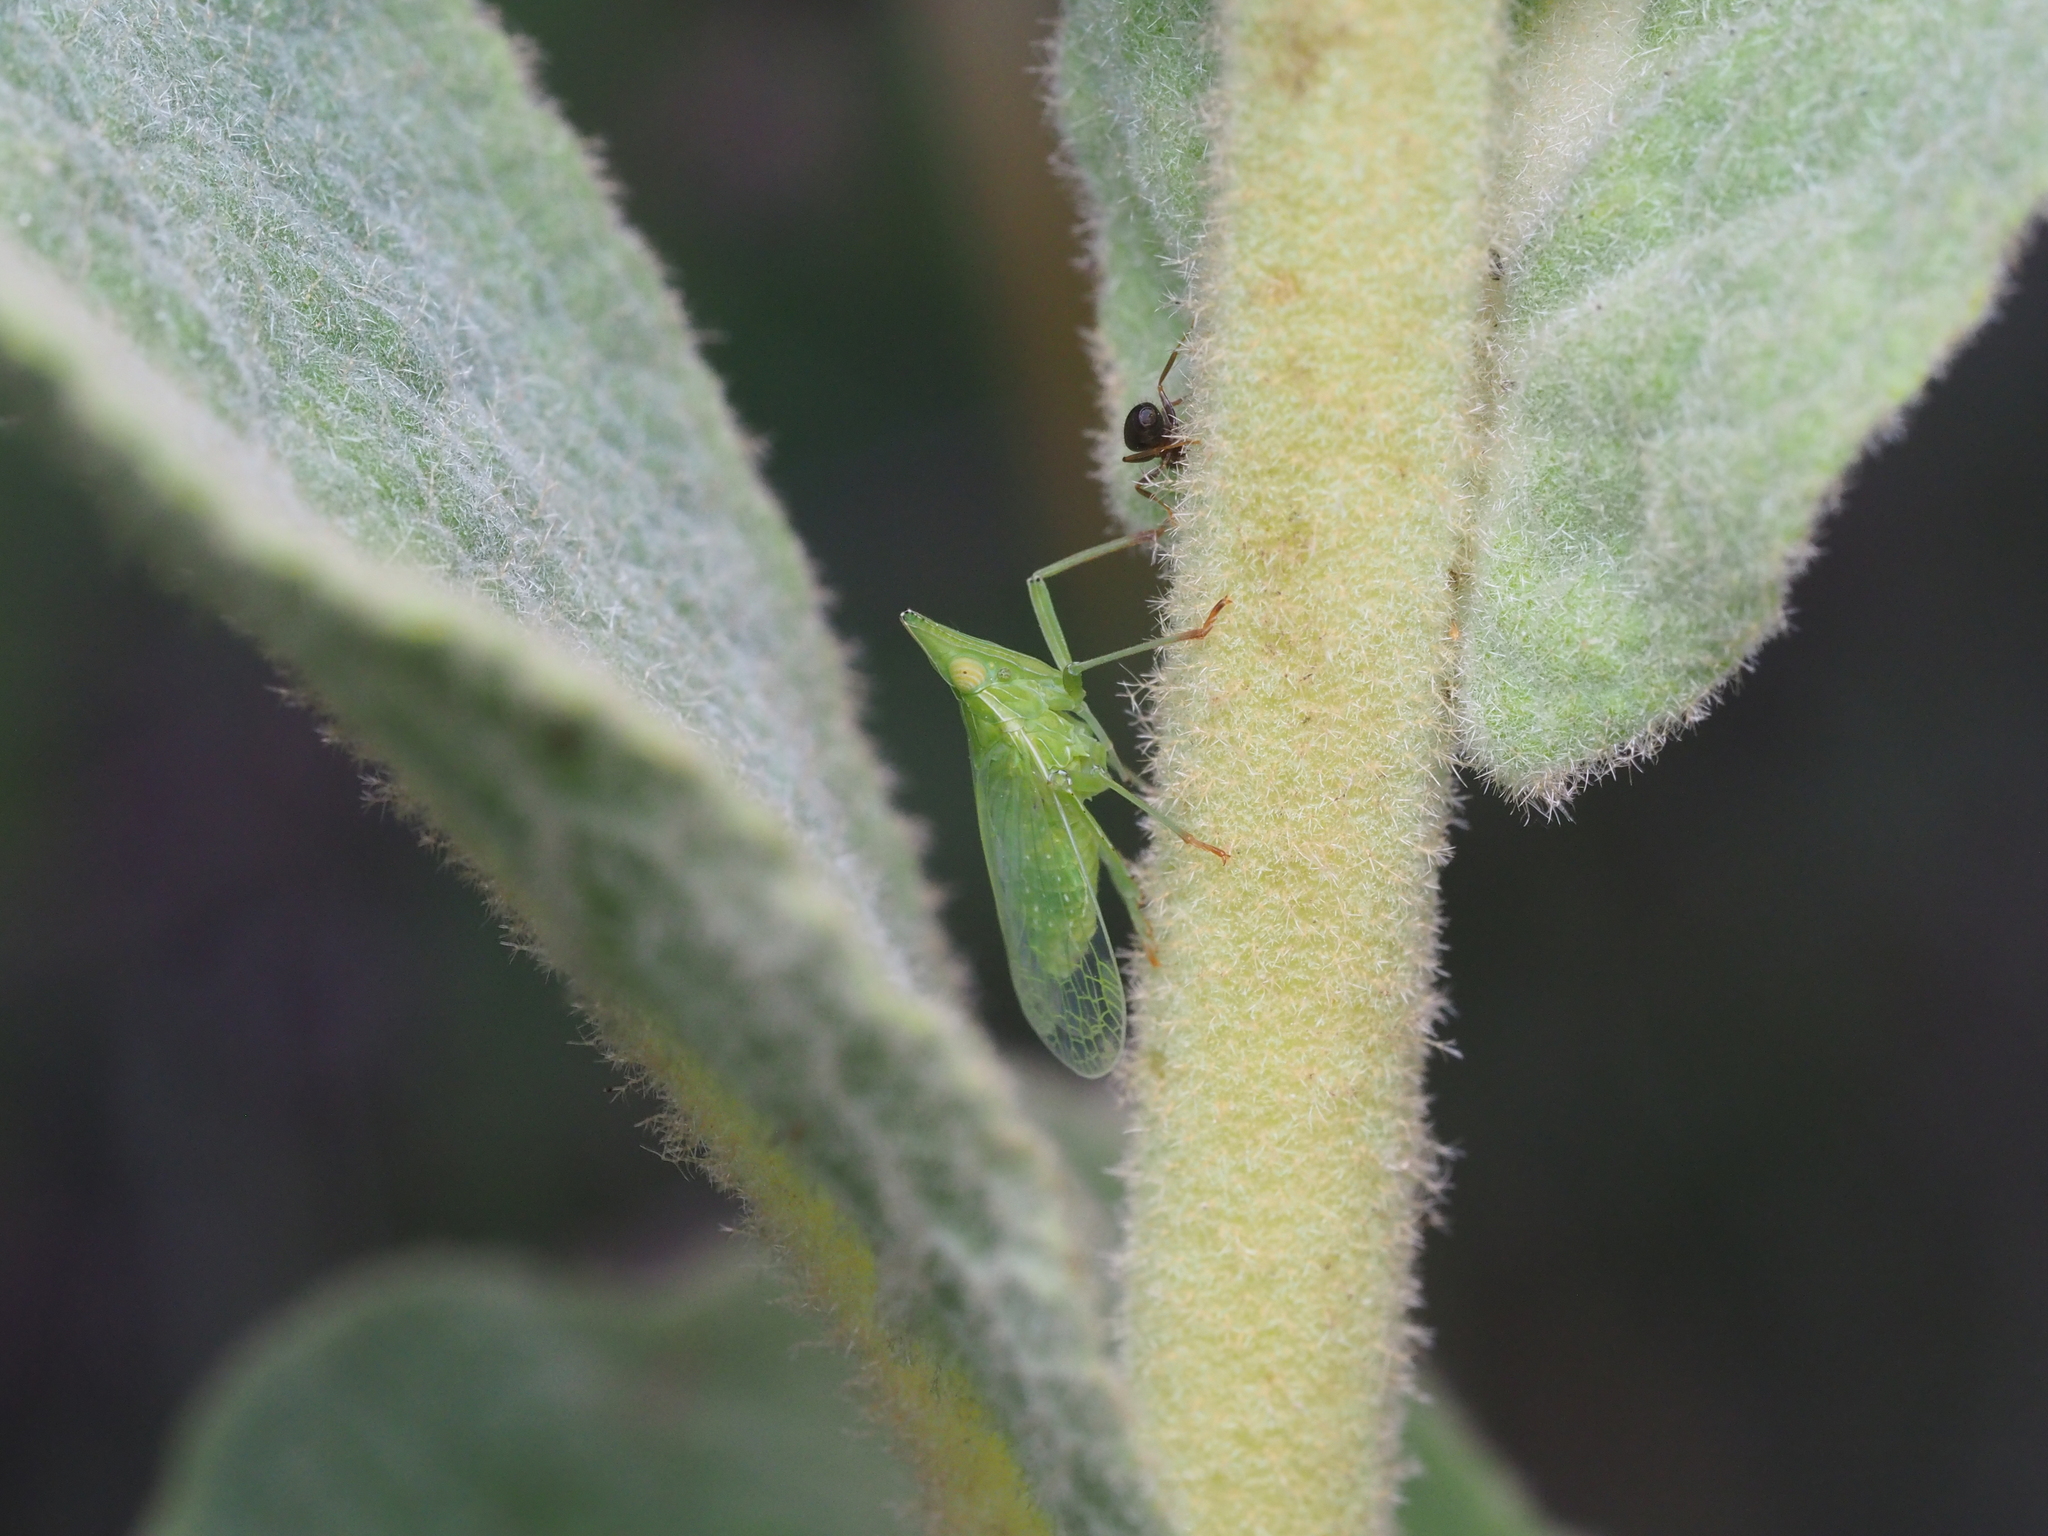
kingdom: Animalia
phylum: Arthropoda
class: Insecta
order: Hemiptera
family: Dictyopharidae
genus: Dictyophara
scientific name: Dictyophara europaea
